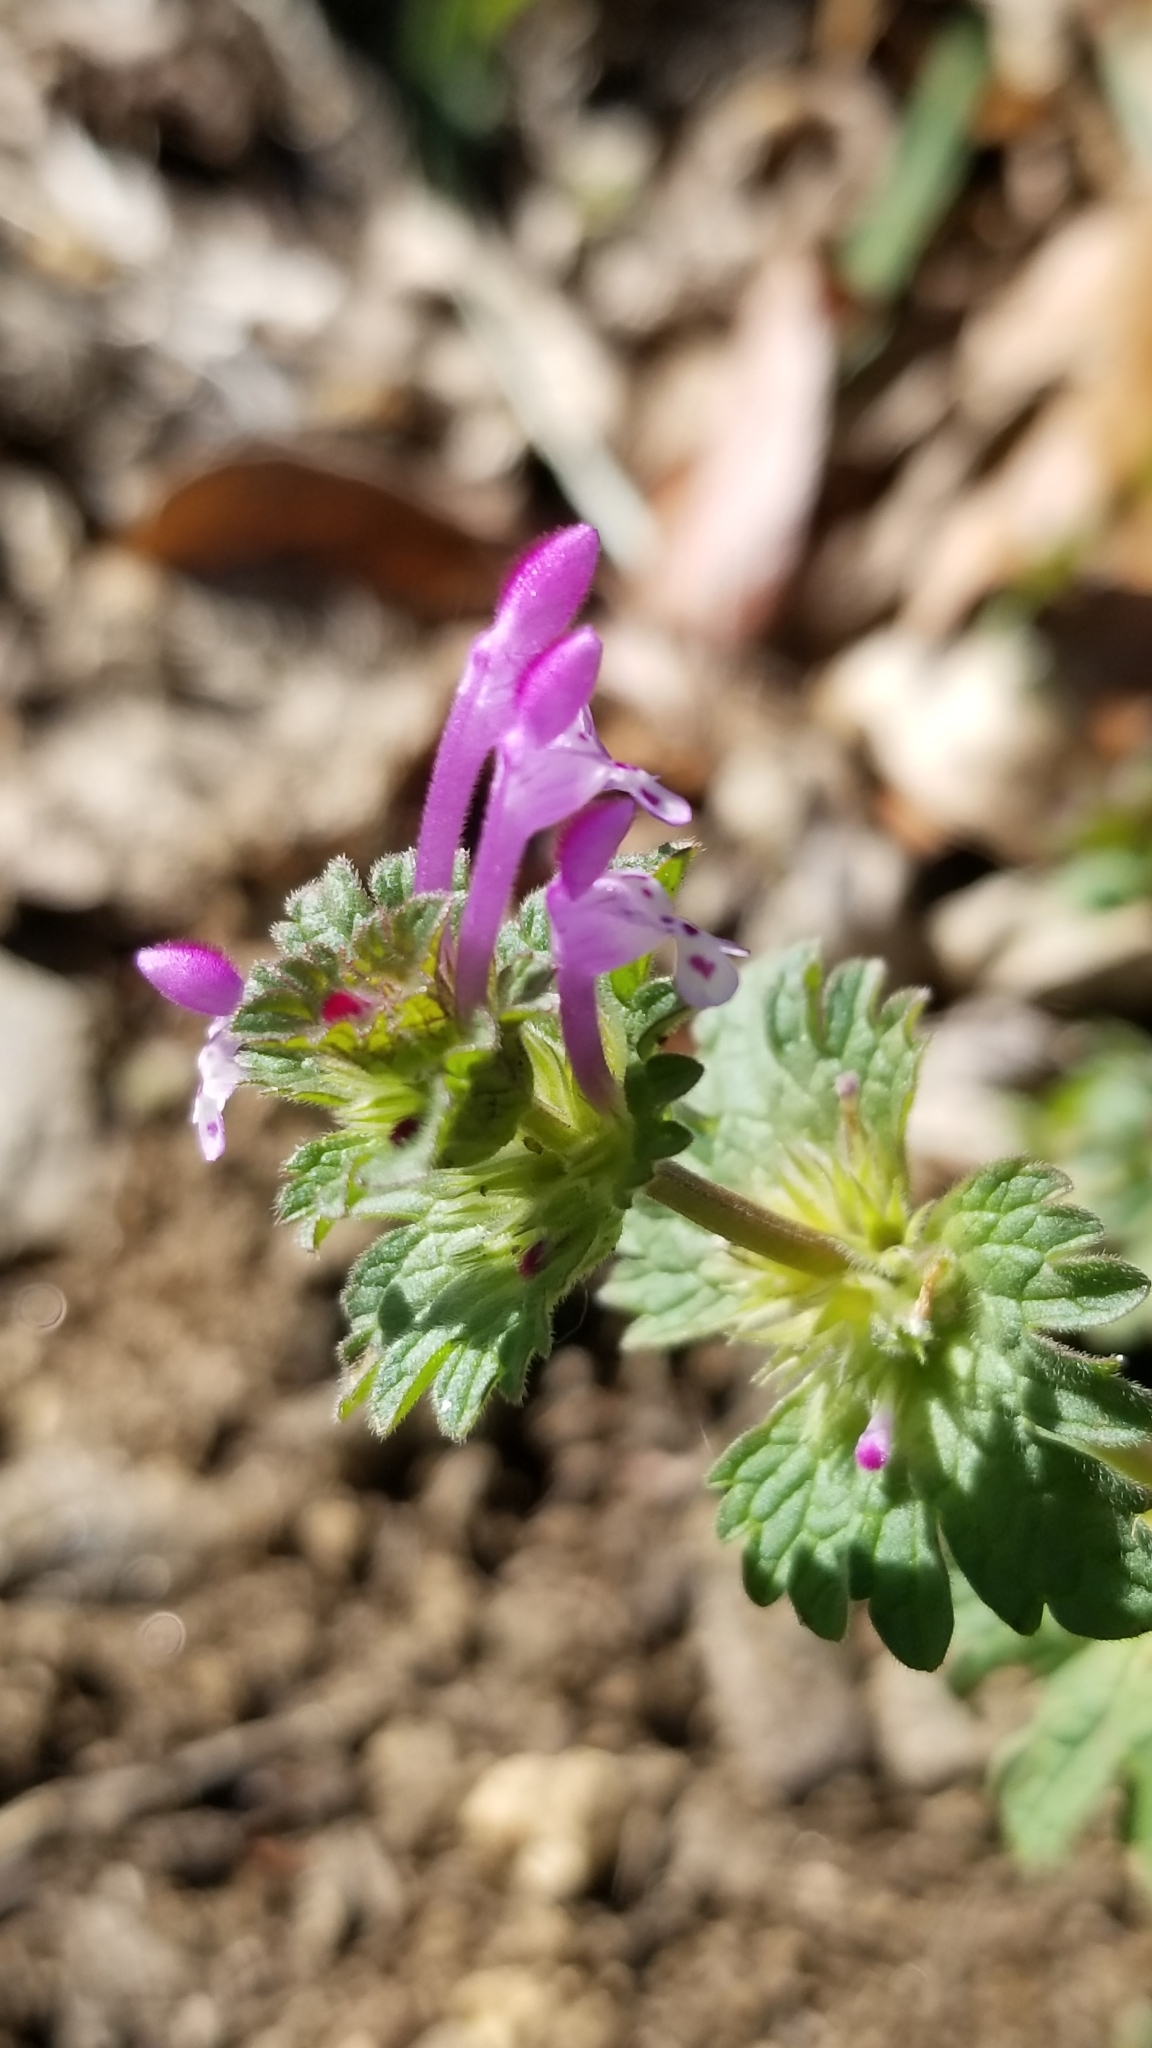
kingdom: Plantae
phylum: Tracheophyta
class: Magnoliopsida
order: Lamiales
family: Lamiaceae
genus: Lamium
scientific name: Lamium amplexicaule
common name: Henbit dead-nettle
